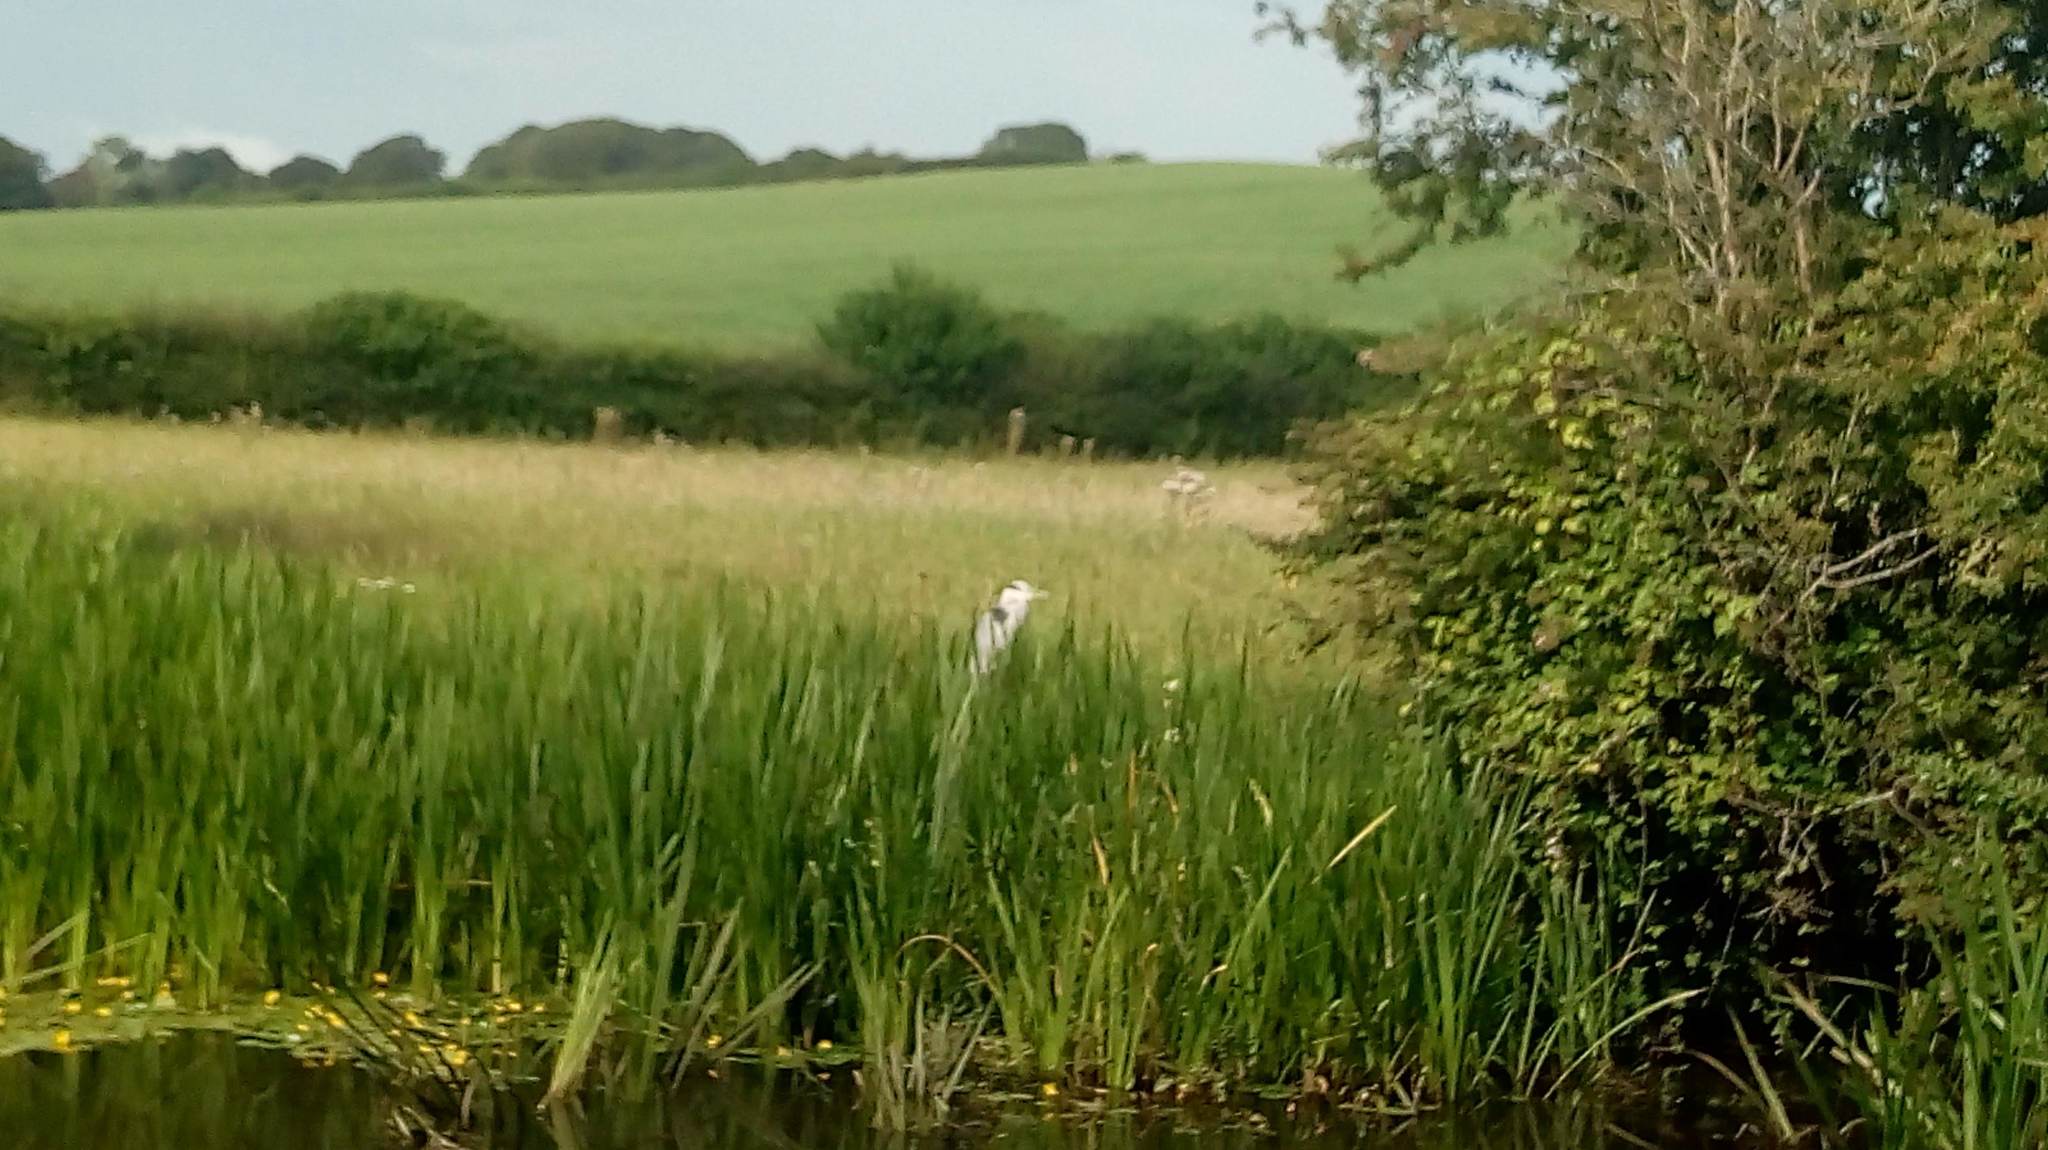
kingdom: Animalia
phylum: Chordata
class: Aves
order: Pelecaniformes
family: Ardeidae
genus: Ardea
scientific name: Ardea cinerea
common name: Grey heron
